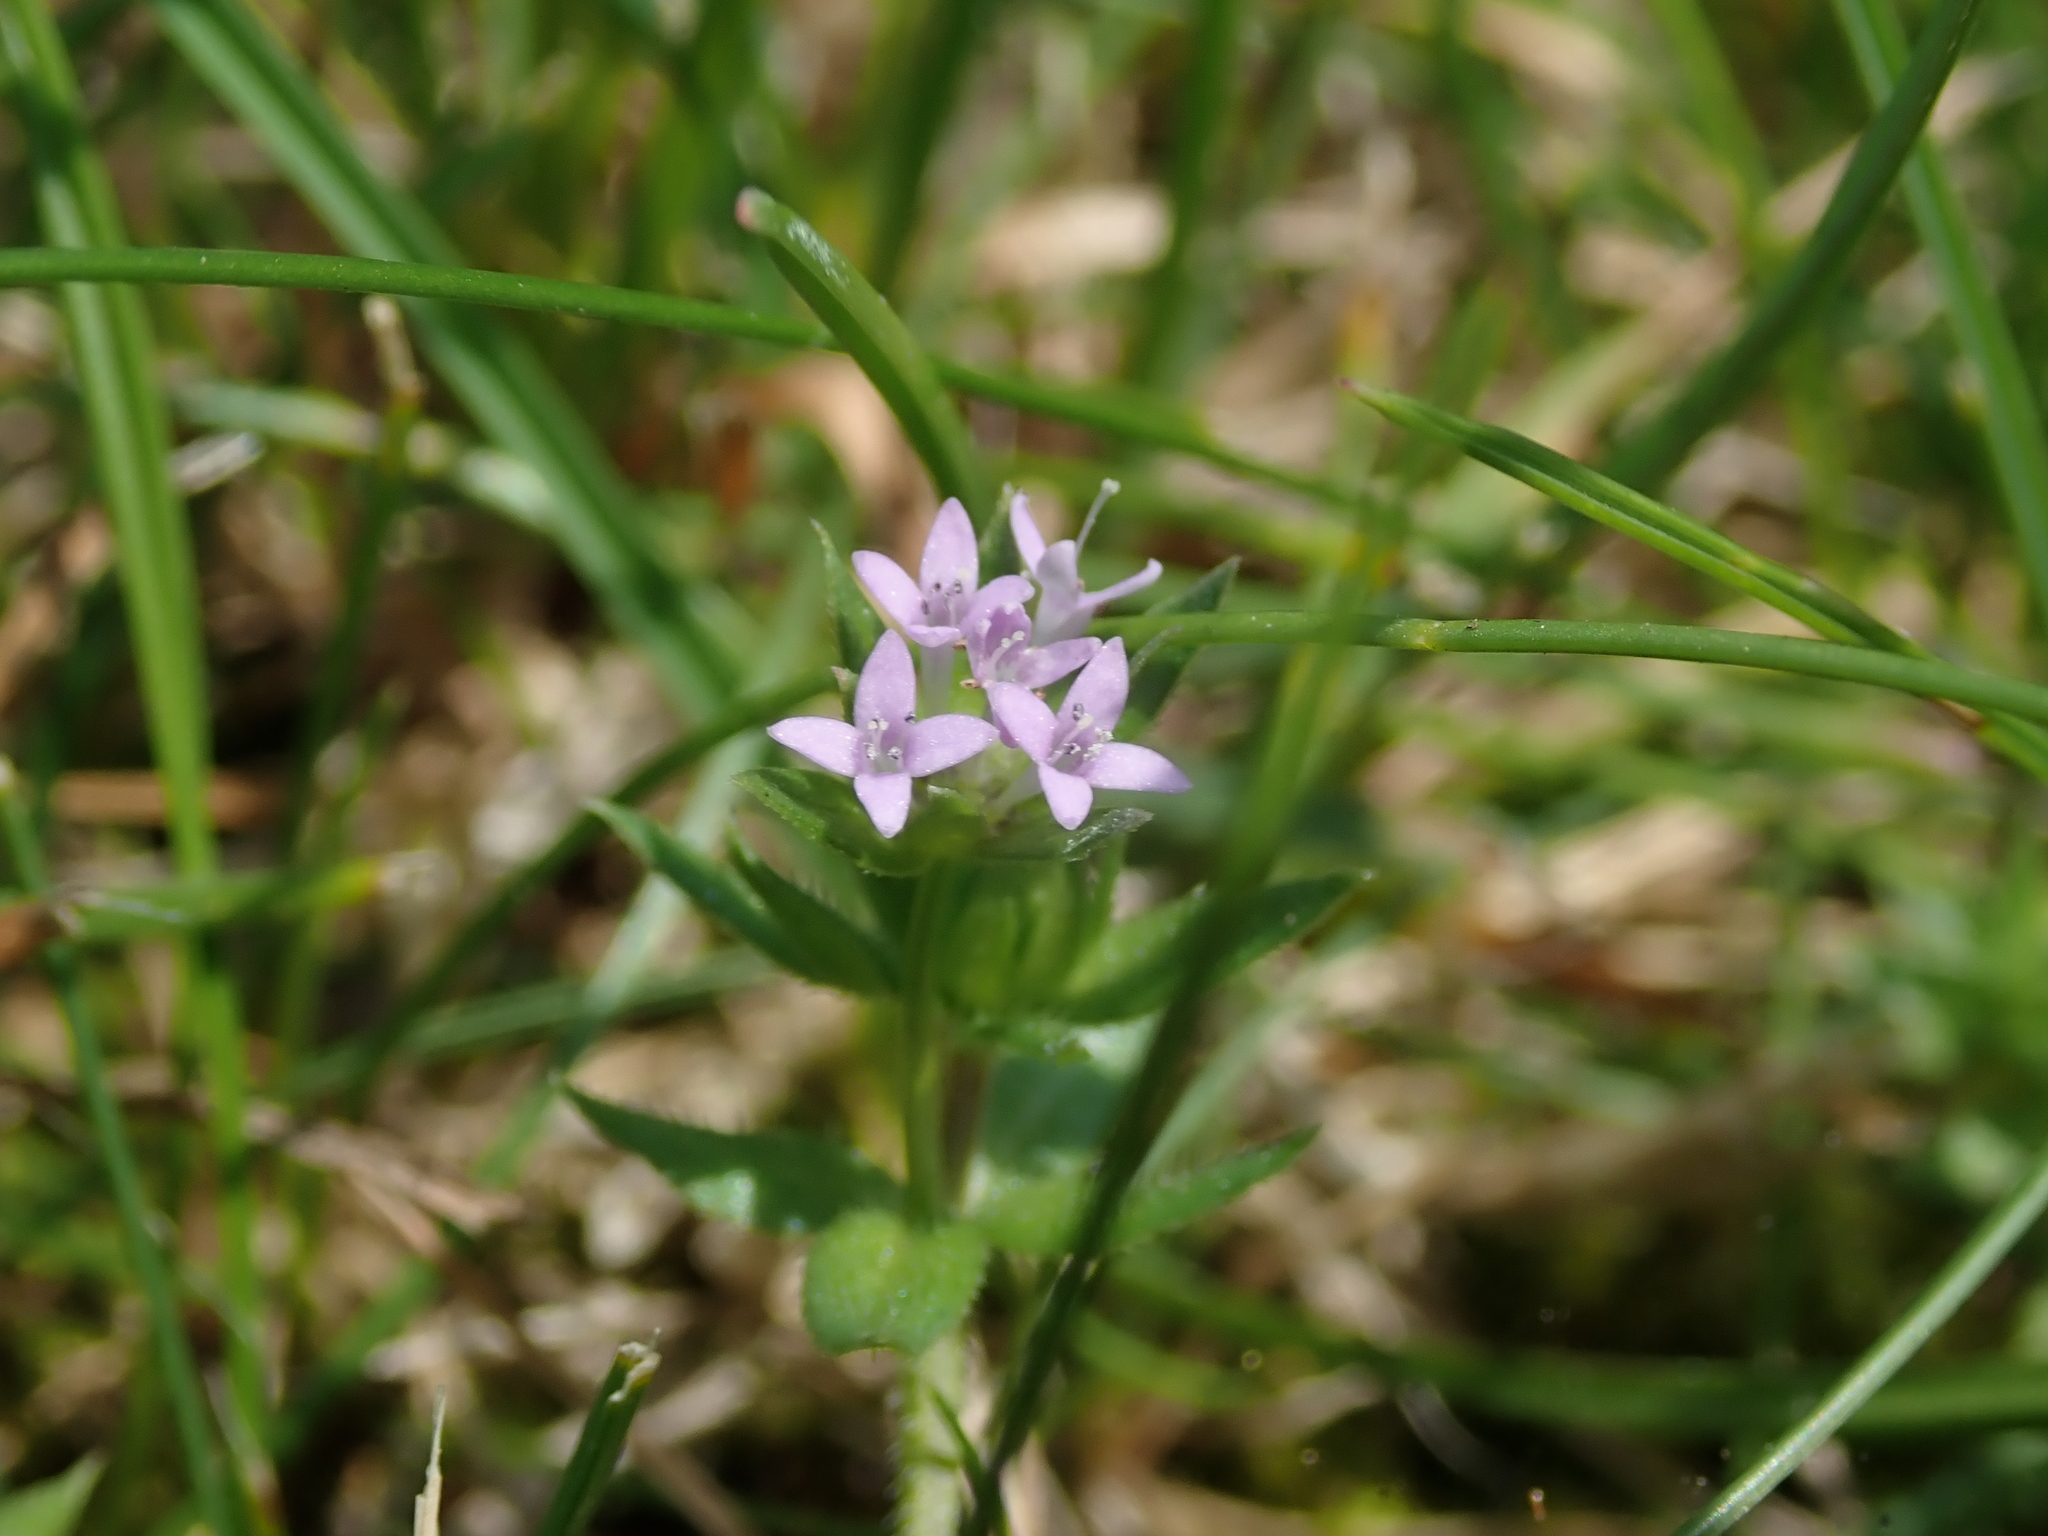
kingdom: Plantae
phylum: Tracheophyta
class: Magnoliopsida
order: Gentianales
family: Rubiaceae
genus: Sherardia
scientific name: Sherardia arvensis
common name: Field madder
